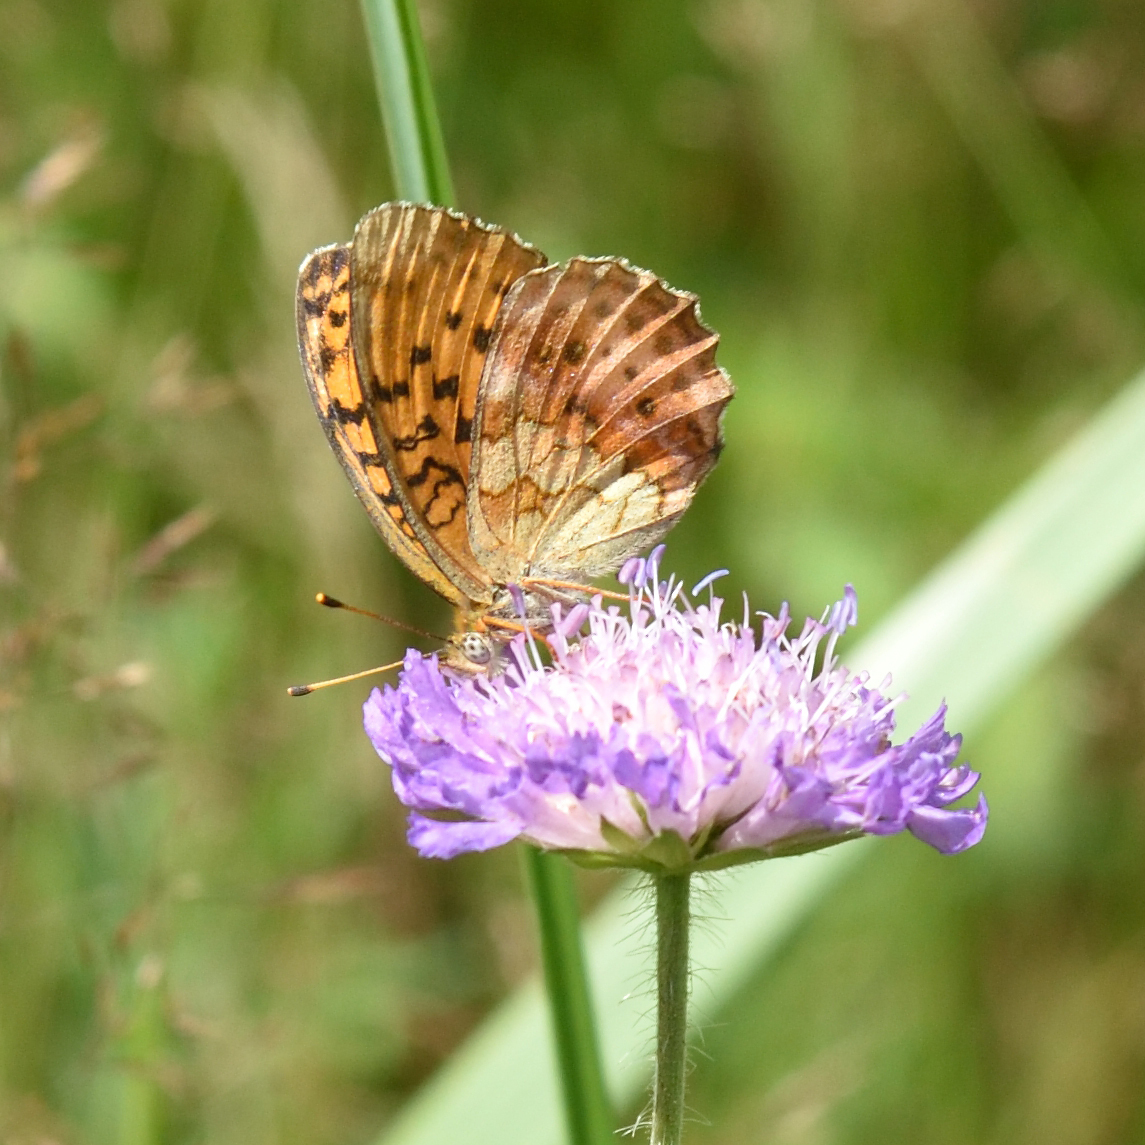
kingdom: Animalia
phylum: Arthropoda
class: Insecta
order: Lepidoptera
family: Nymphalidae
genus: Brenthis
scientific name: Brenthis daphne
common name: Marbled fritillary
